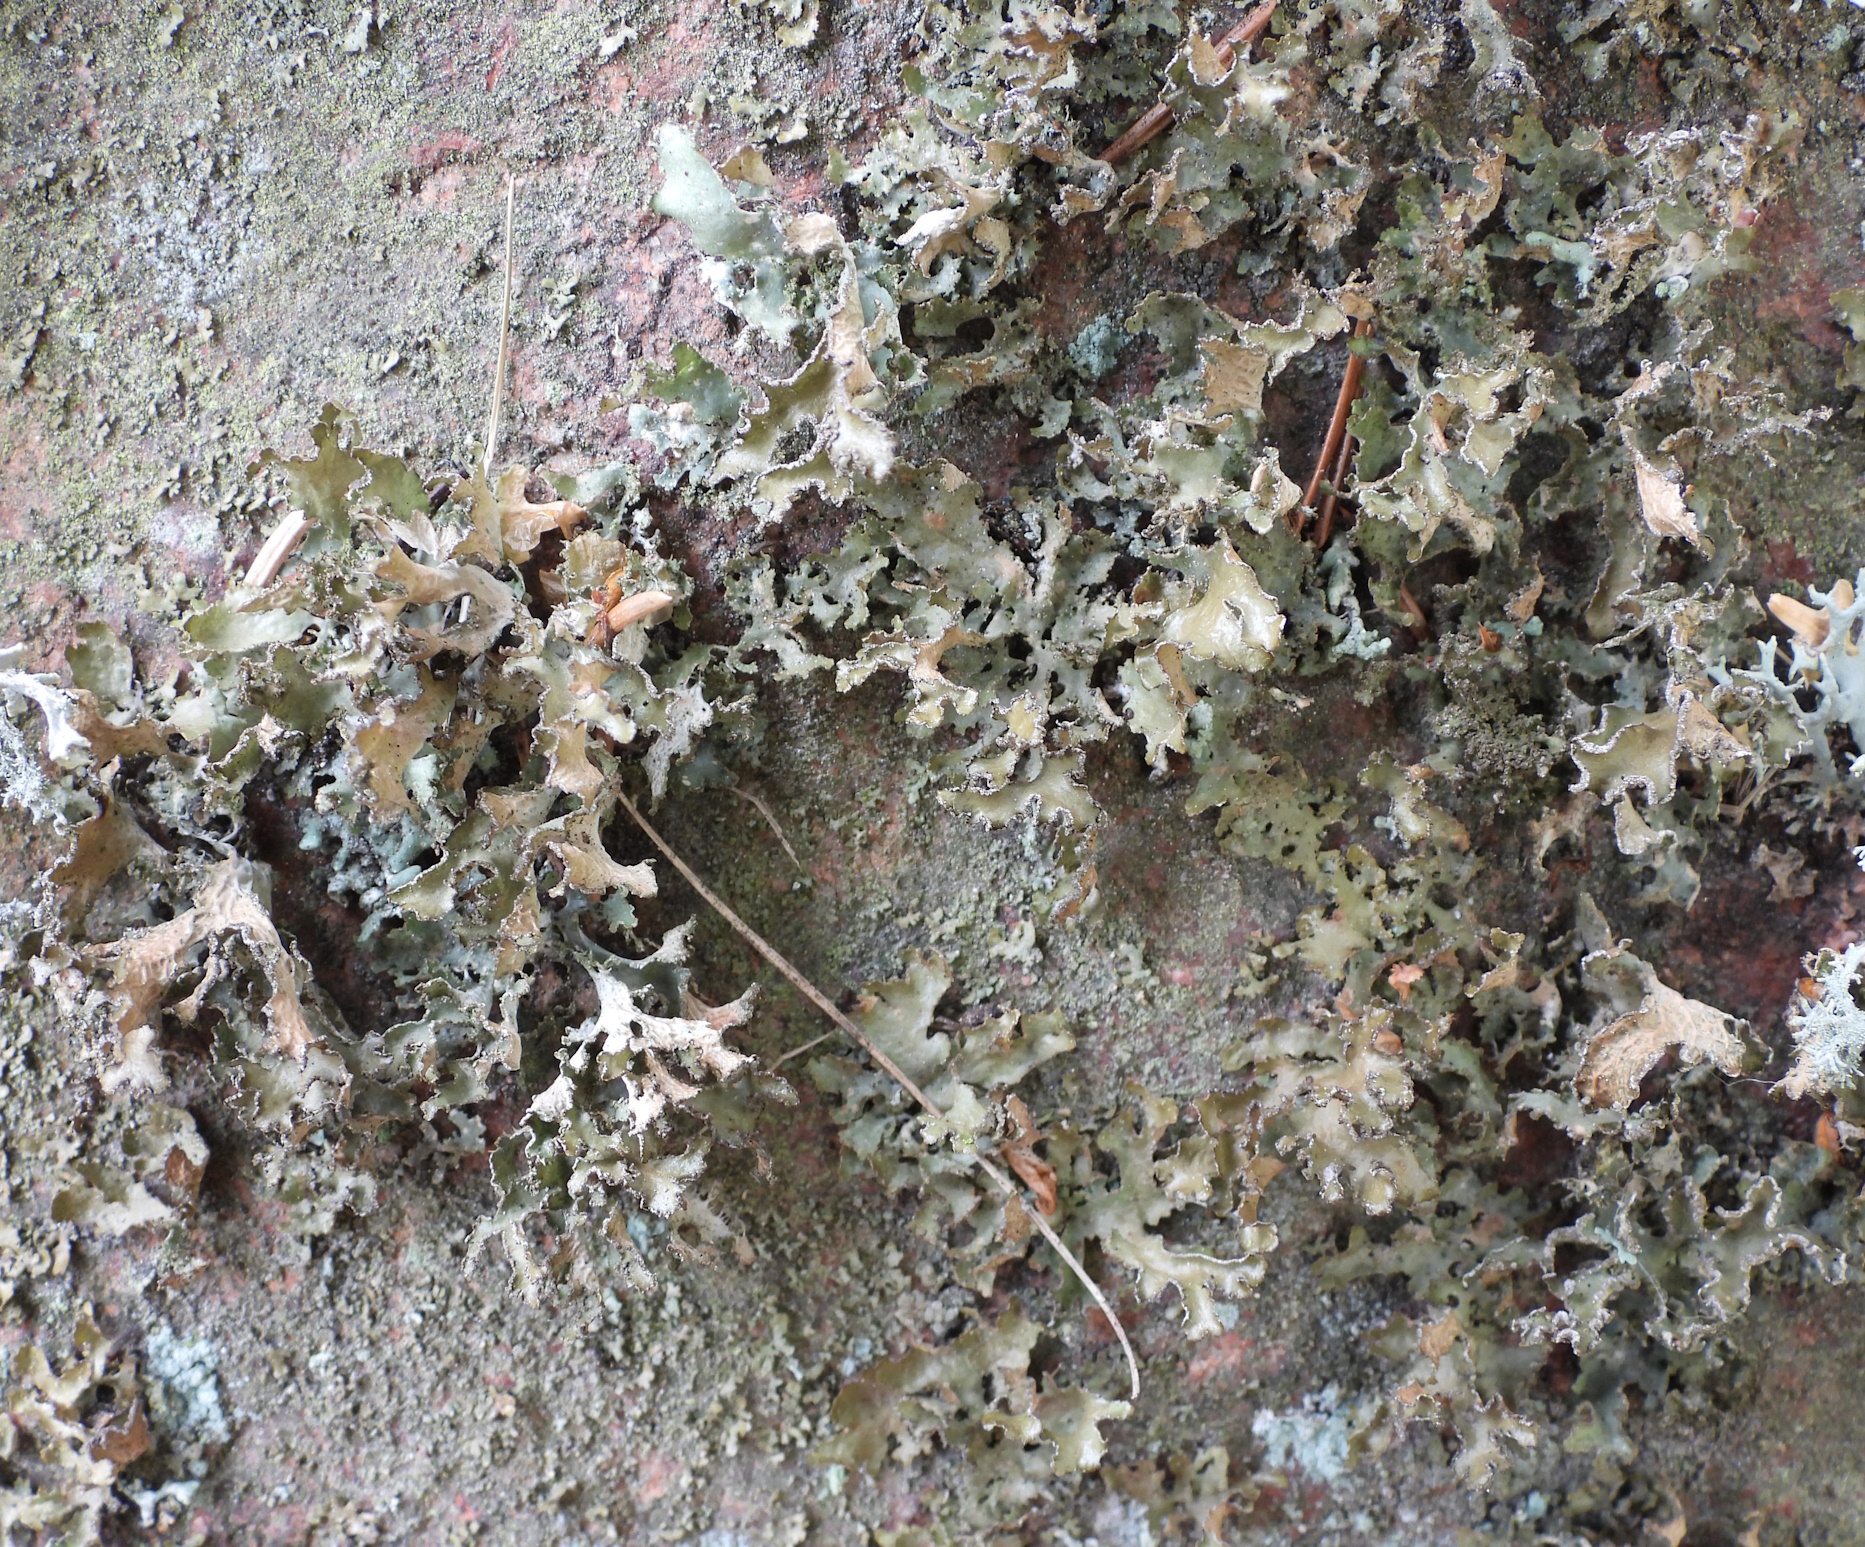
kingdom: Fungi
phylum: Ascomycota
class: Lecanoromycetes
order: Lecanorales
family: Parmeliaceae
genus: Nephromopsis
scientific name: Nephromopsis chlorophylla
